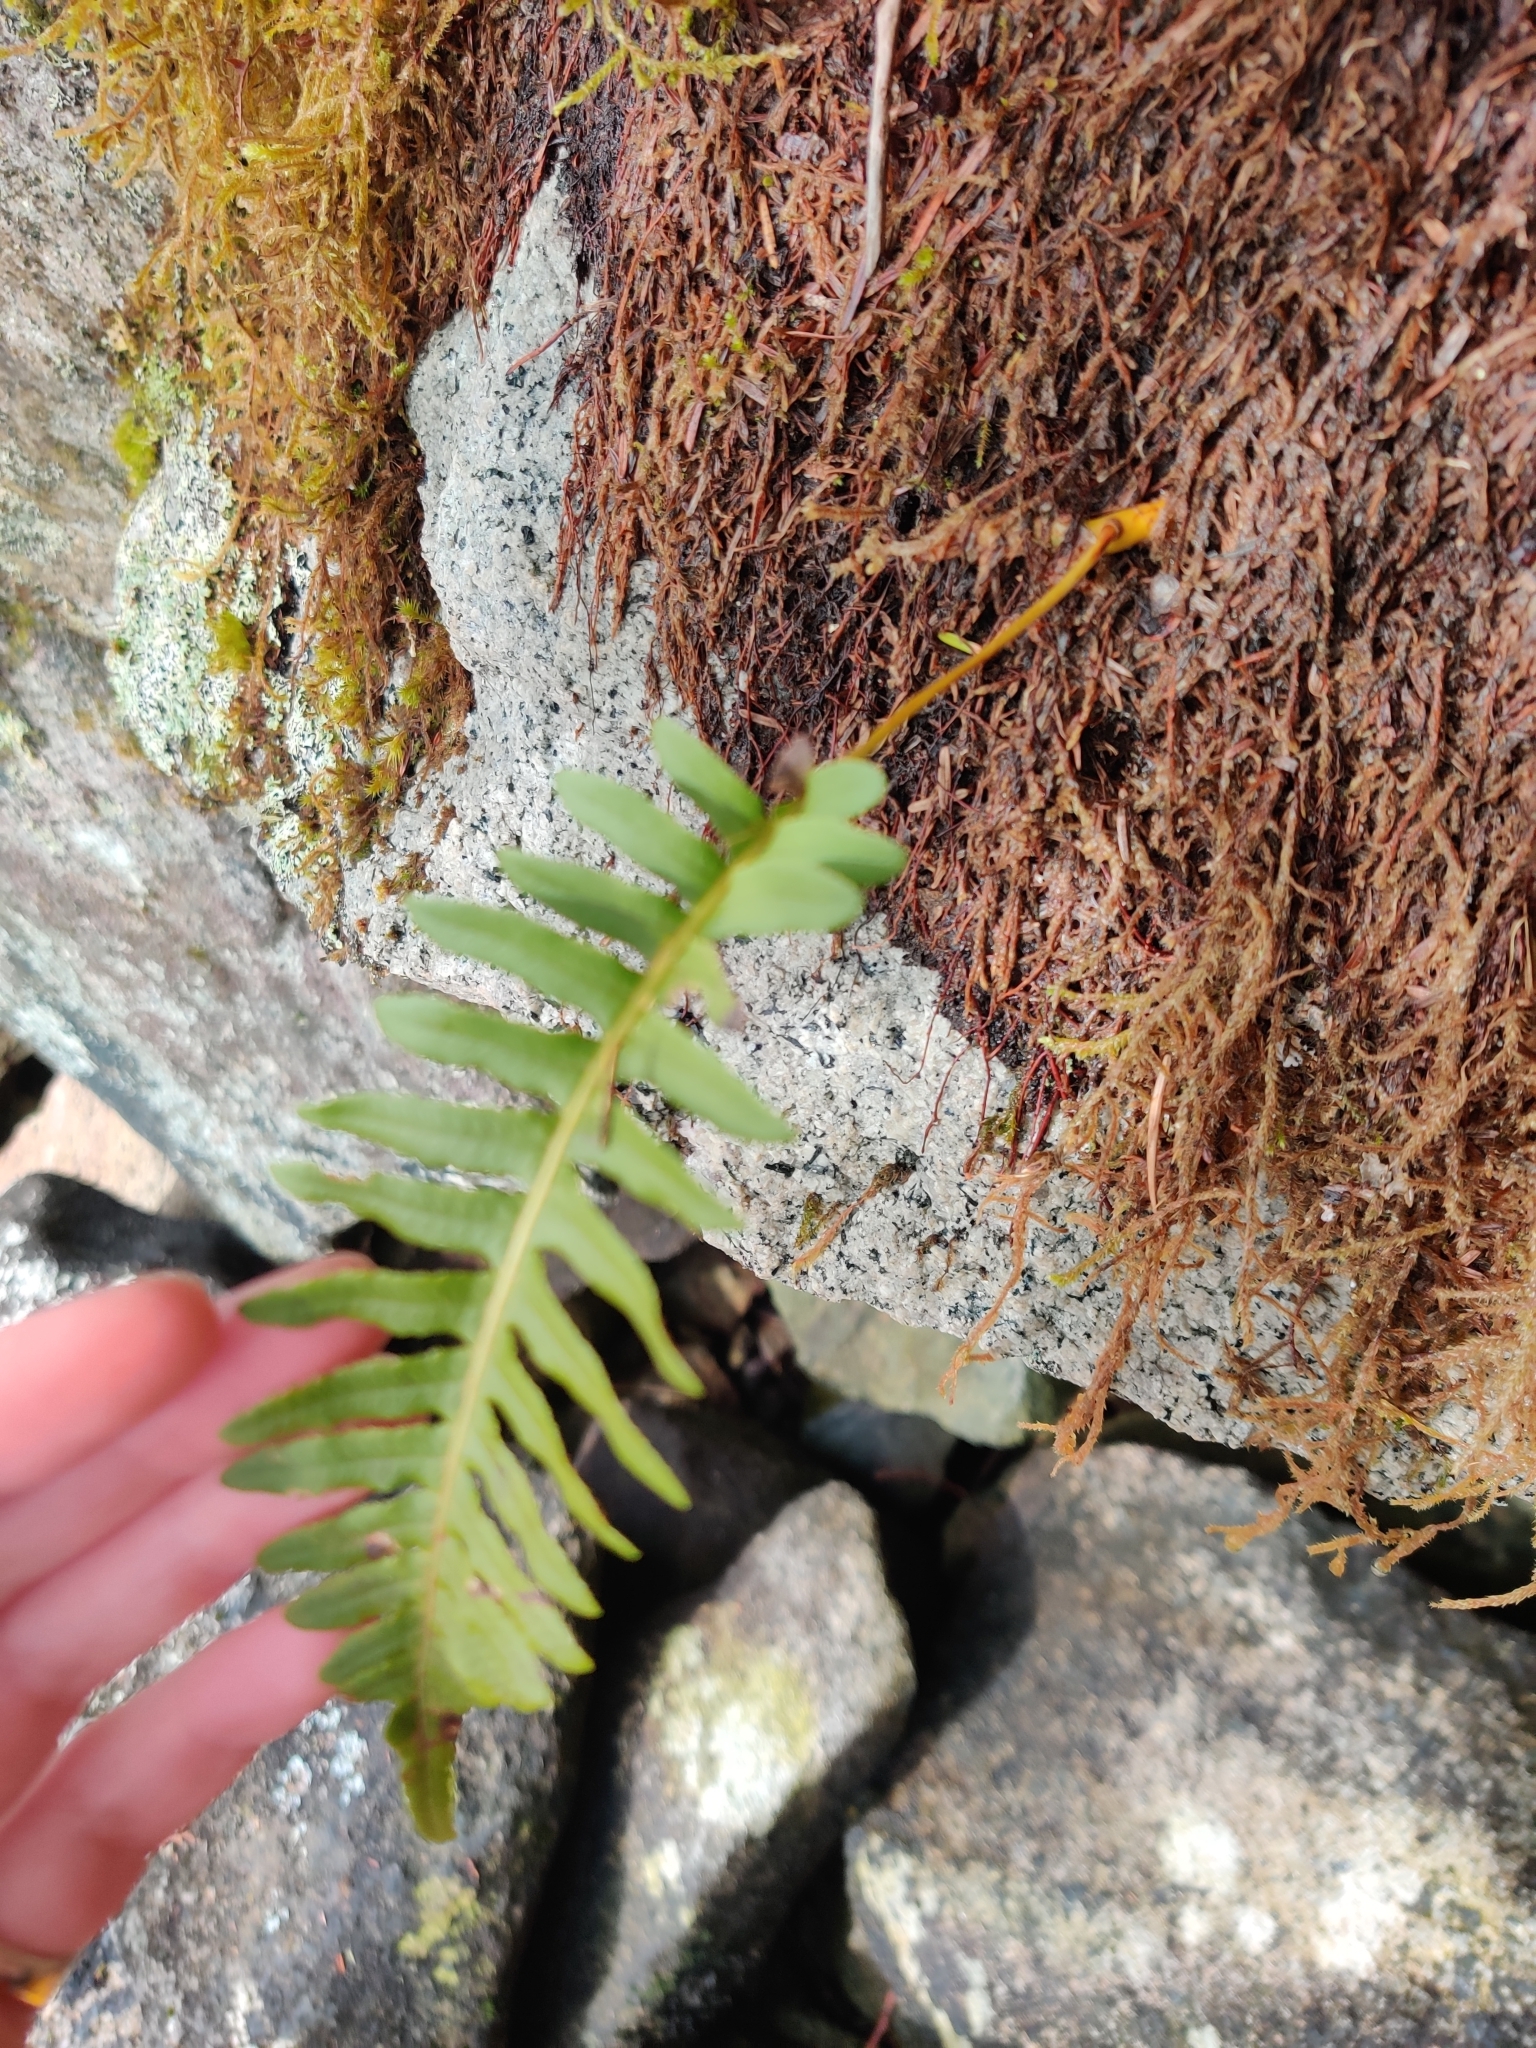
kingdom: Plantae
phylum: Tracheophyta
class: Polypodiopsida
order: Polypodiales
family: Polypodiaceae
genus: Polypodium
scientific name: Polypodium glycyrrhiza
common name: Licorice fern
